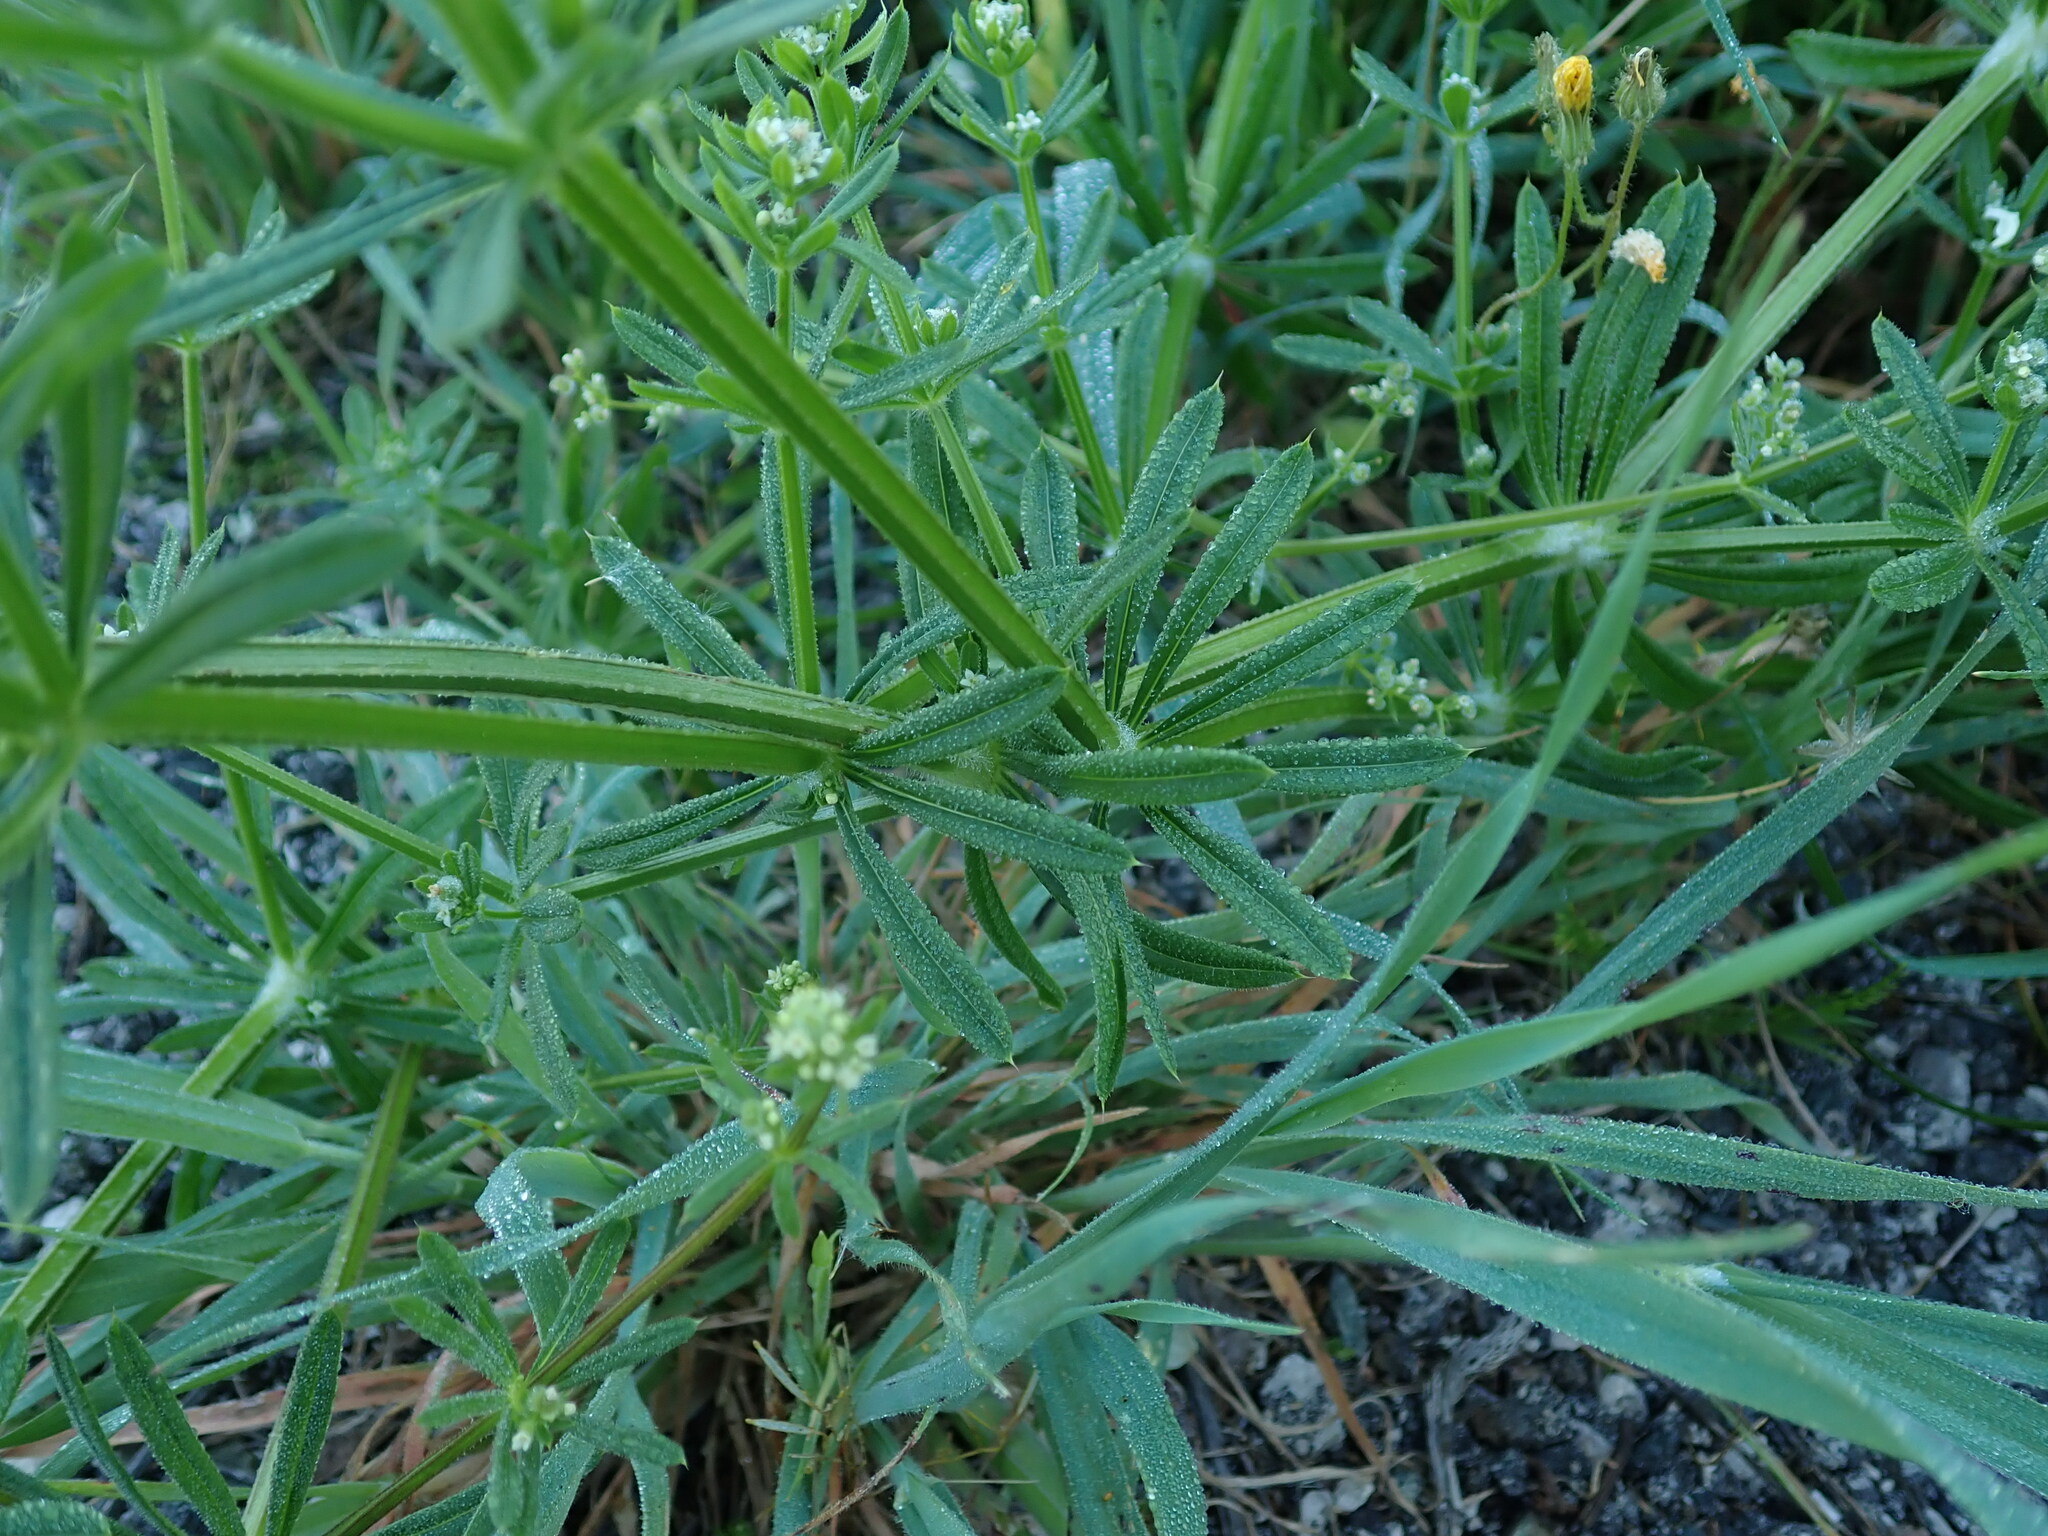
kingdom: Plantae
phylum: Tracheophyta
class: Magnoliopsida
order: Gentianales
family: Rubiaceae
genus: Galium
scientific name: Galium aparine
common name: Cleavers
